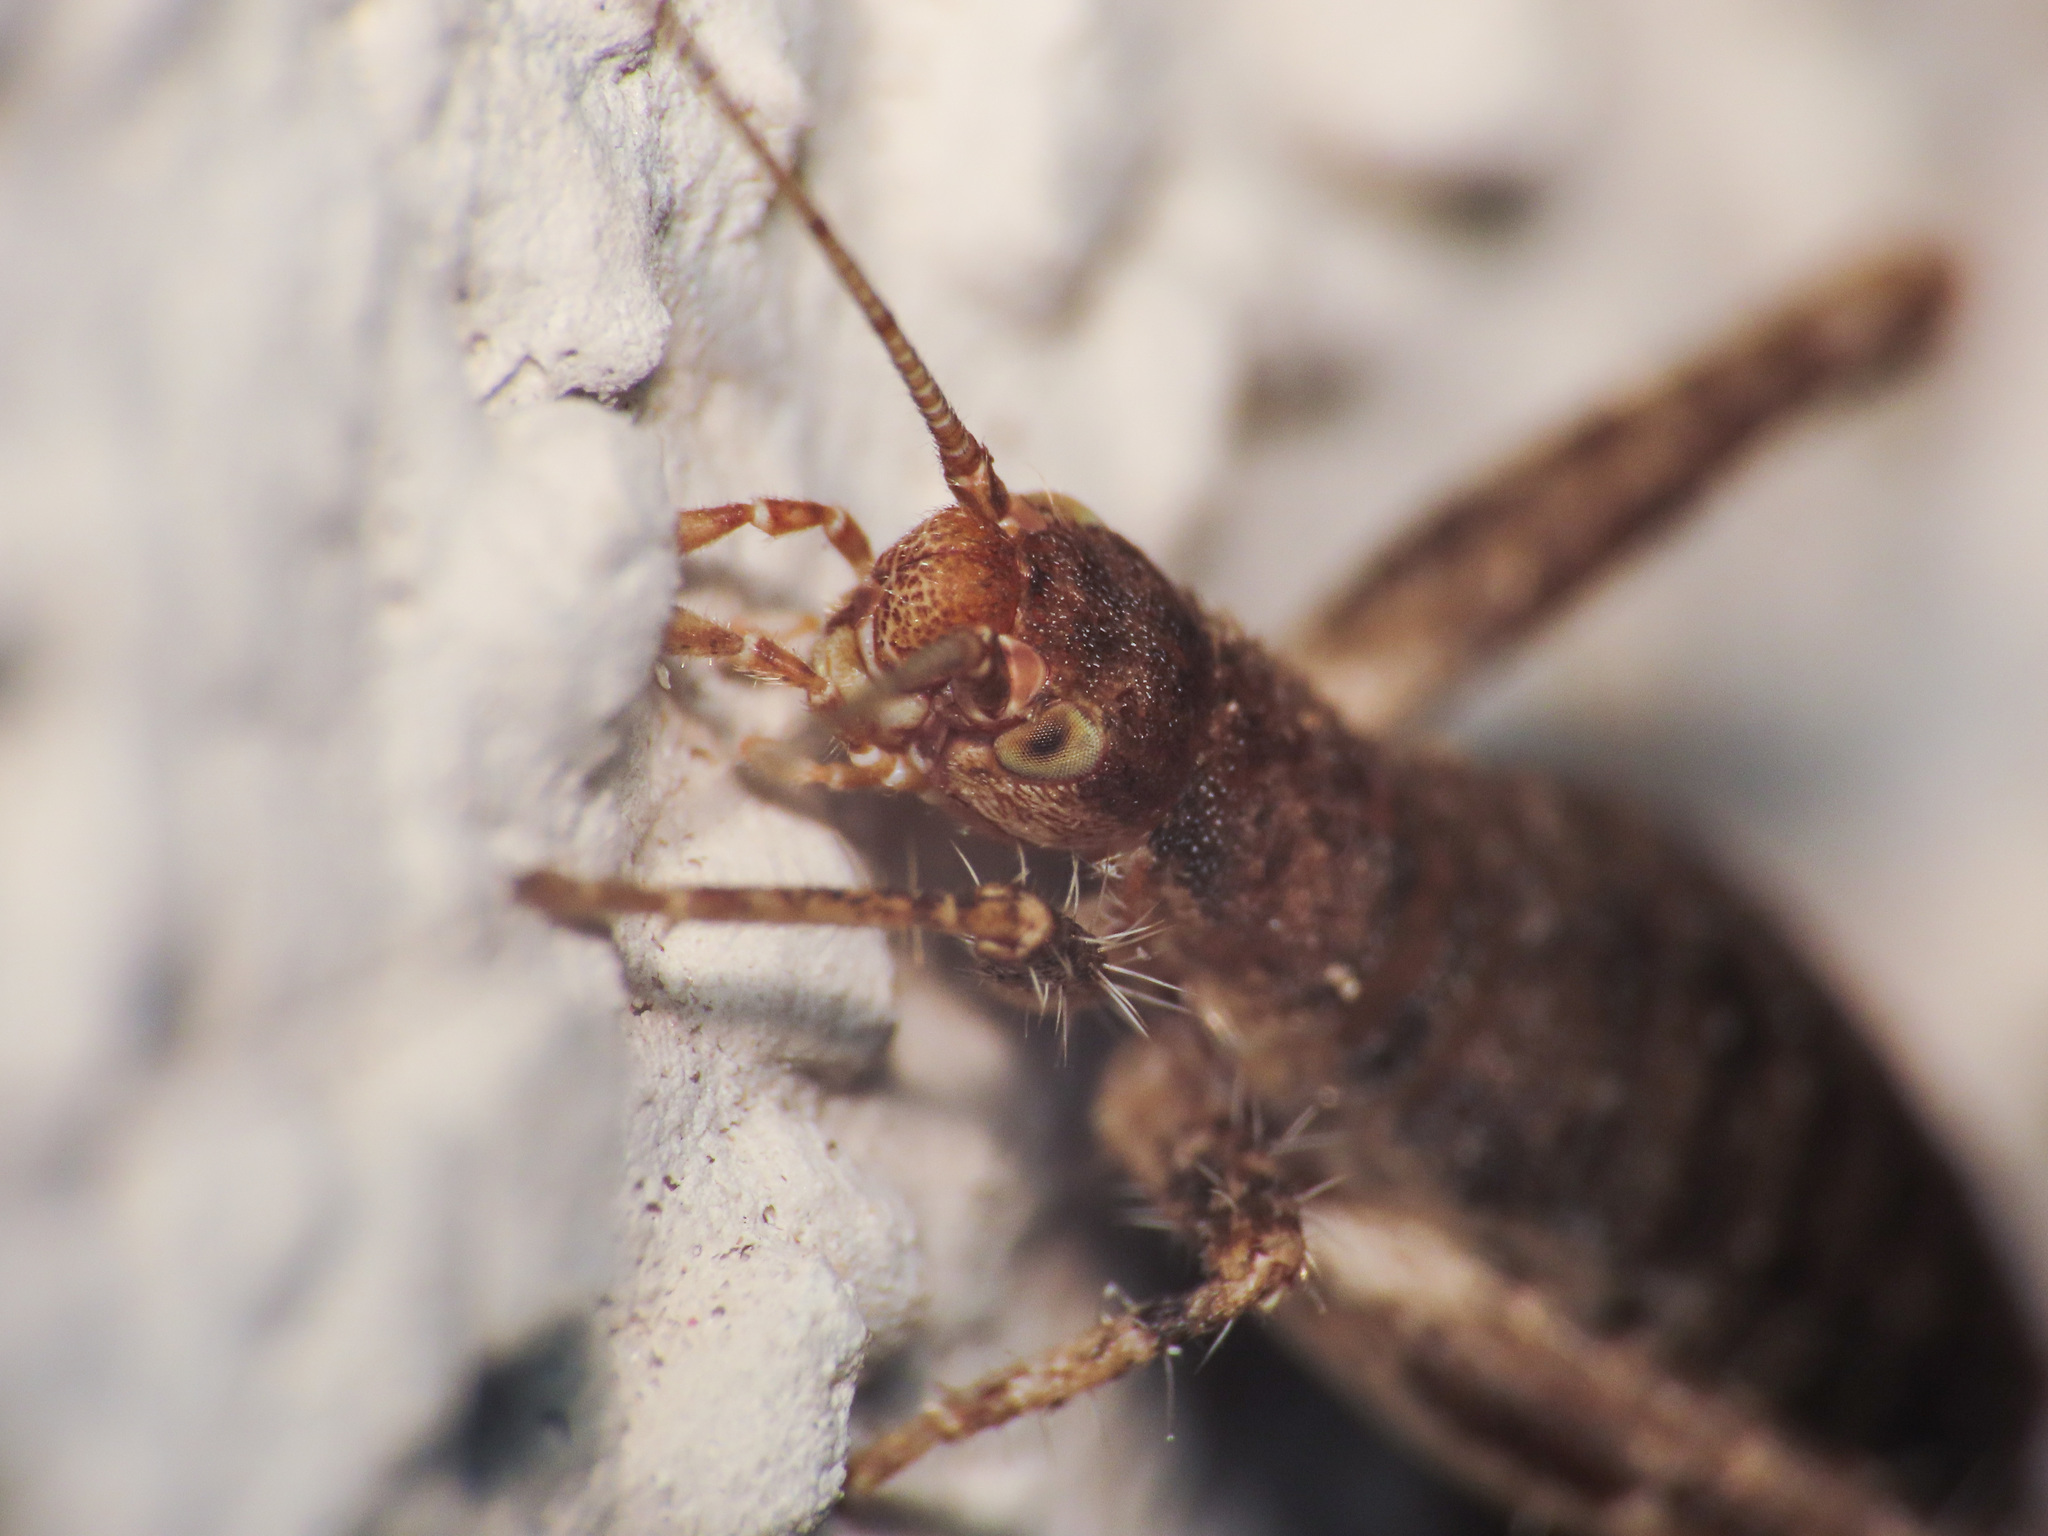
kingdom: Animalia
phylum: Arthropoda
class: Insecta
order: Orthoptera
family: Mogoplistidae
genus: Arachnocephalus
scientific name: Arachnocephalus vestitus
